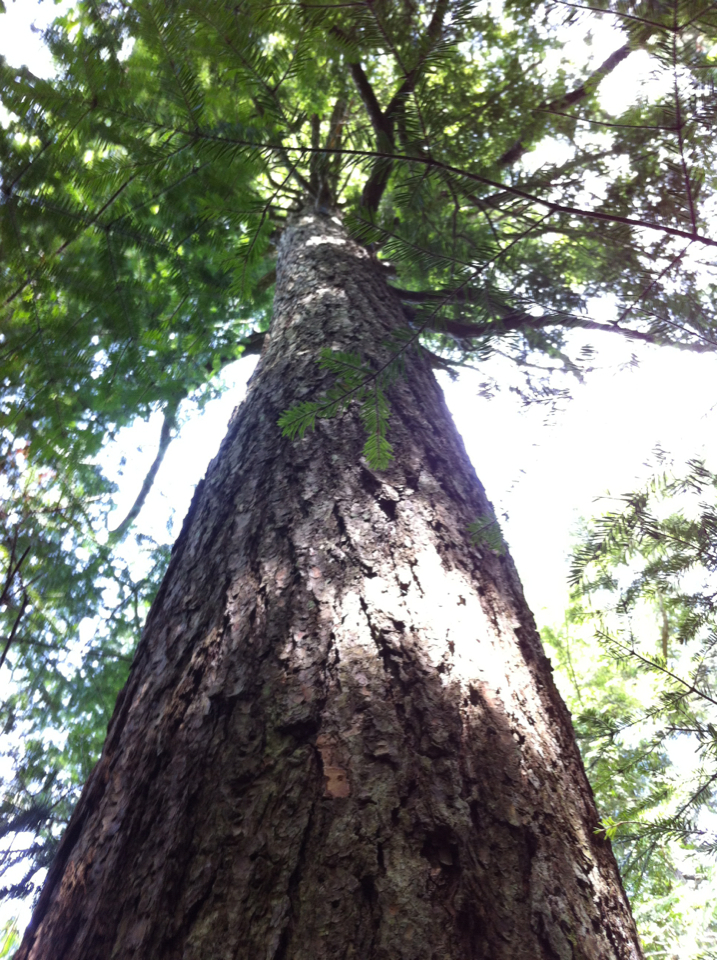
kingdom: Plantae
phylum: Tracheophyta
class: Pinopsida
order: Pinales
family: Pinaceae
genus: Tsuga
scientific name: Tsuga canadensis
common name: Eastern hemlock
